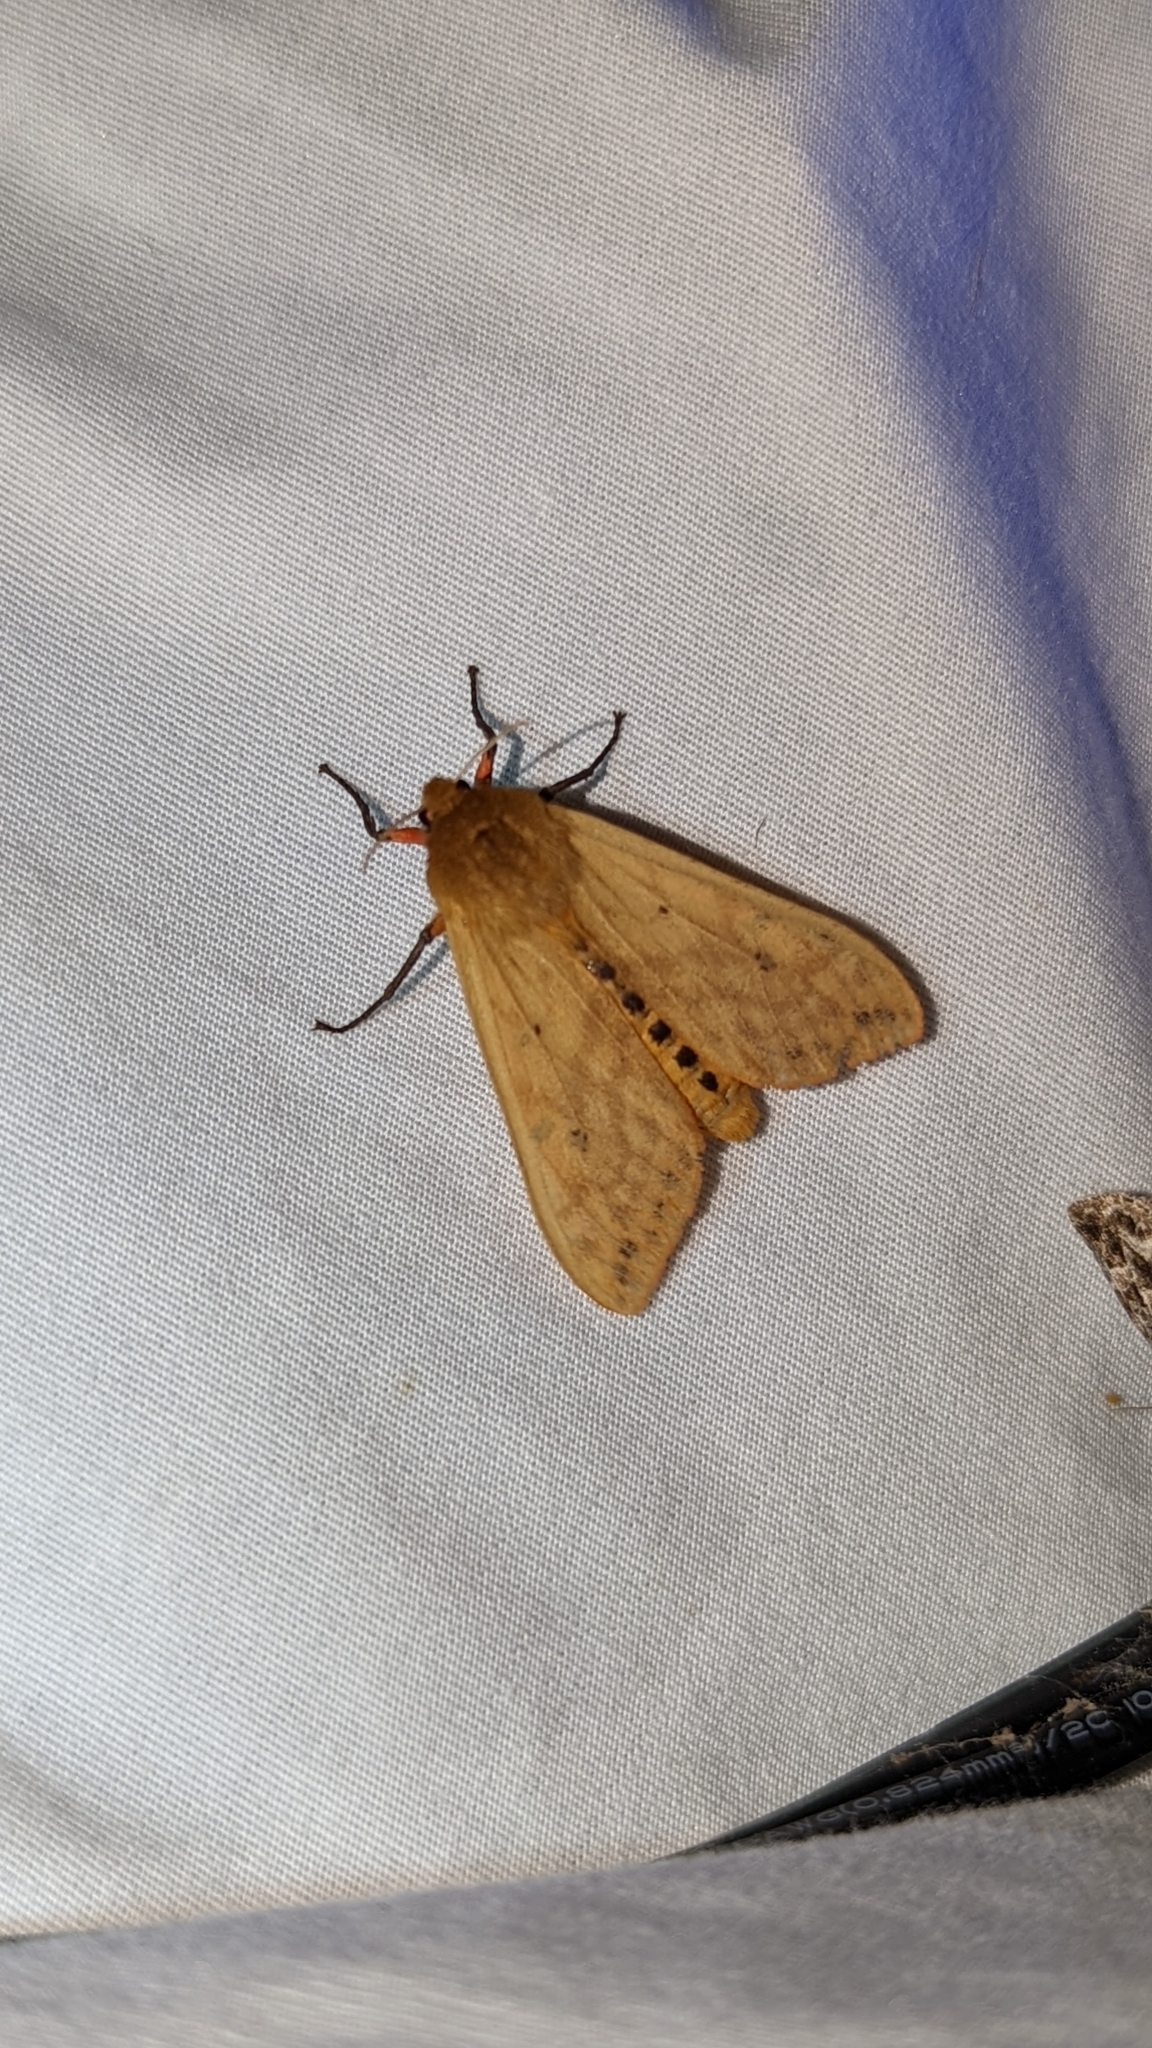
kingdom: Animalia
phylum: Arthropoda
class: Insecta
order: Lepidoptera
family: Erebidae
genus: Pyrrharctia
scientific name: Pyrrharctia isabella
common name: Isabella tiger moth
